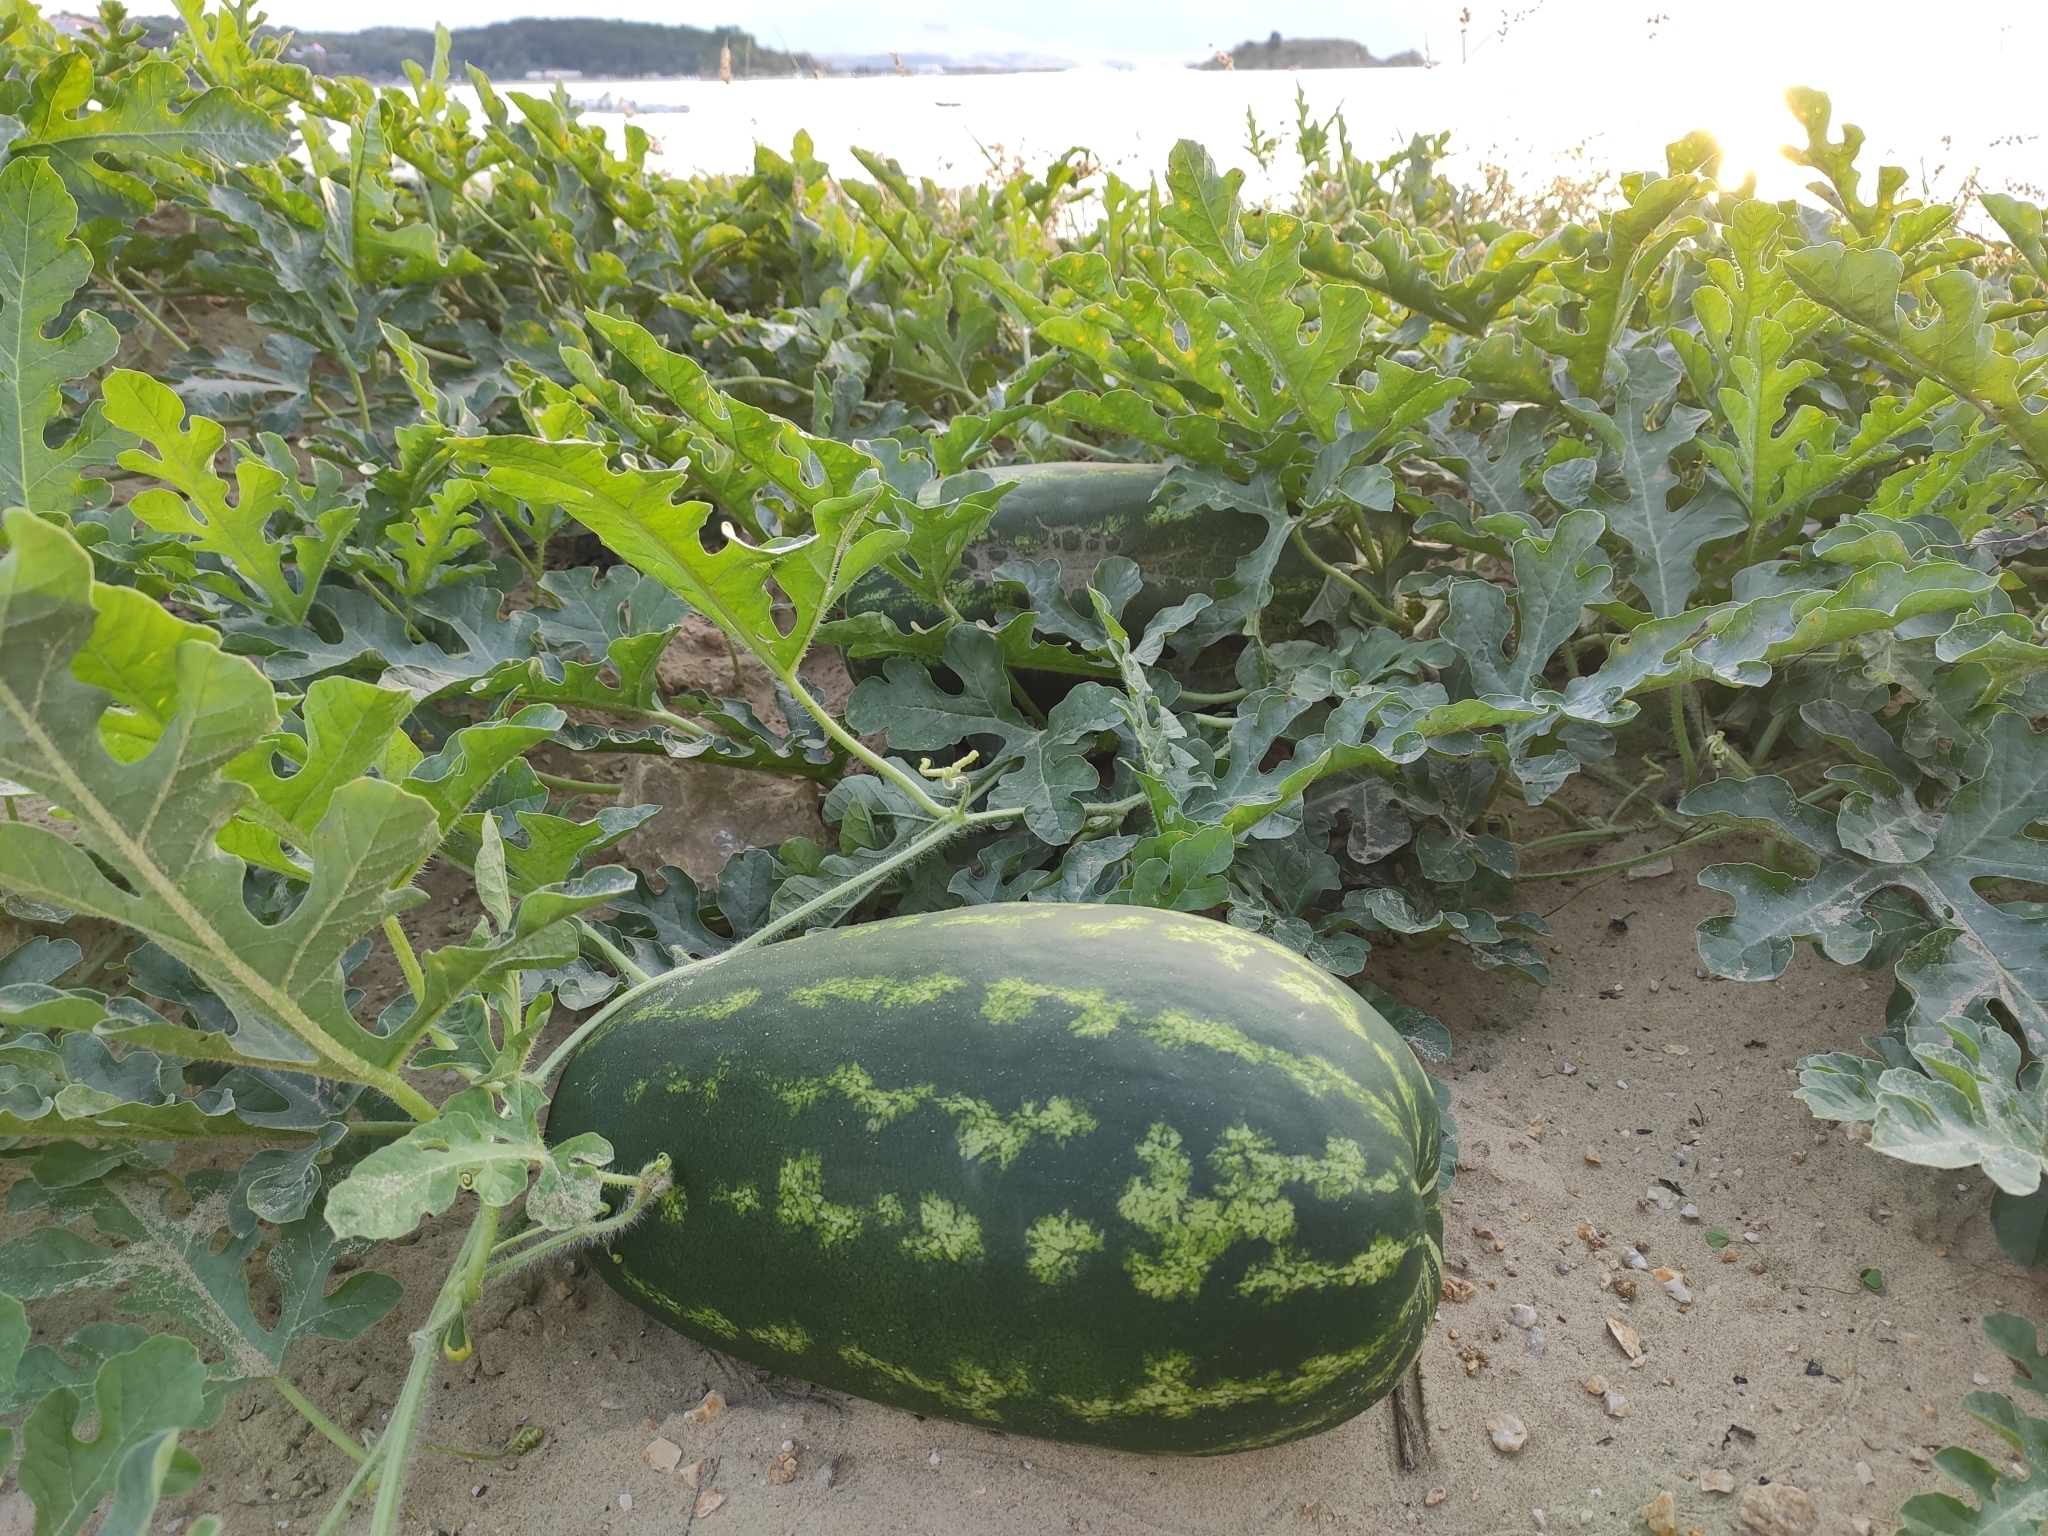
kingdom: Plantae
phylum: Tracheophyta
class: Magnoliopsida
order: Cucurbitales
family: Cucurbitaceae
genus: Citrullus
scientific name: Citrullus lanatus
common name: Watermelon
